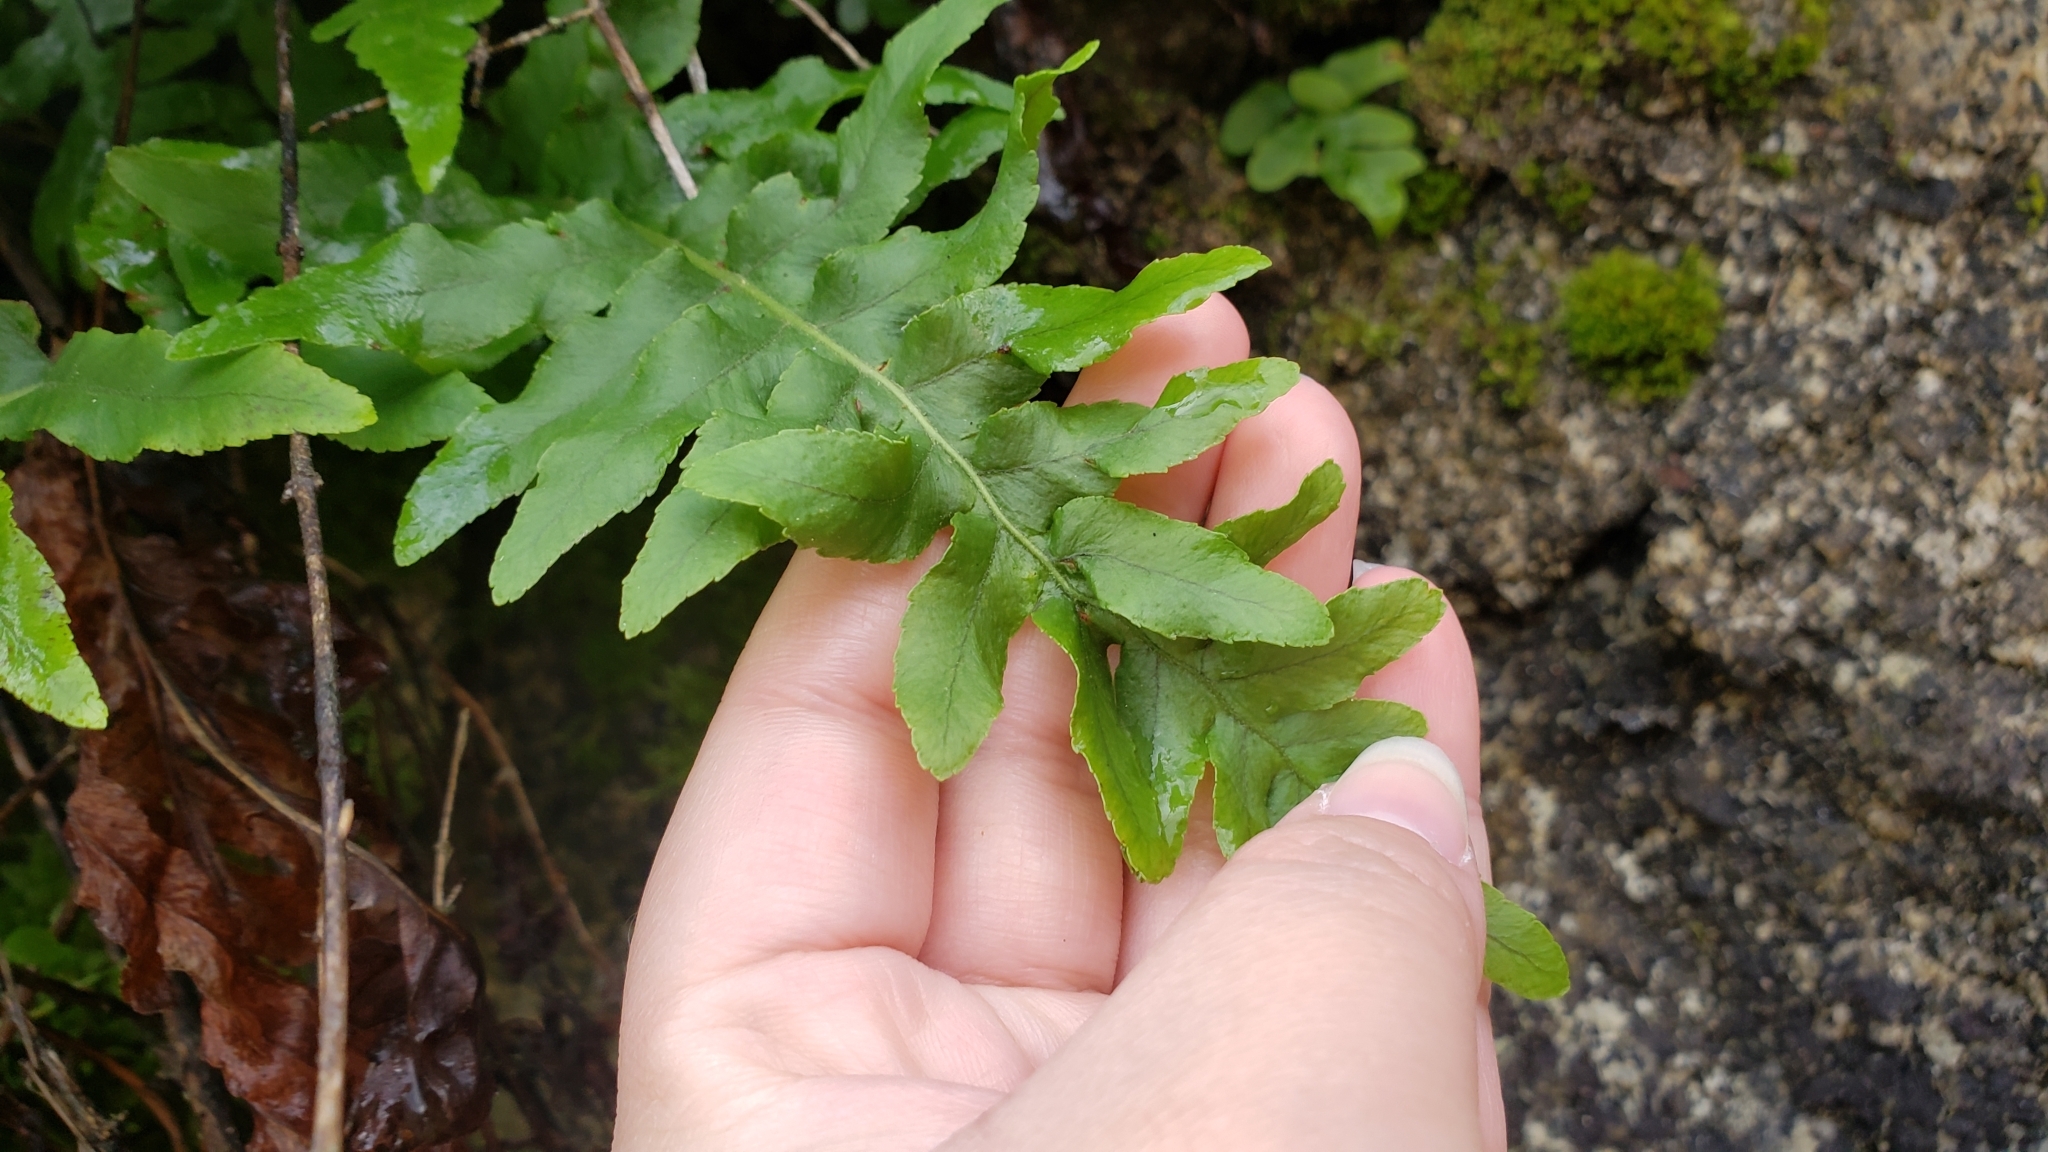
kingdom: Plantae
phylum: Tracheophyta
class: Polypodiopsida
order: Polypodiales
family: Polypodiaceae
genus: Polypodium
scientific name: Polypodium californicum
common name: California polypody
